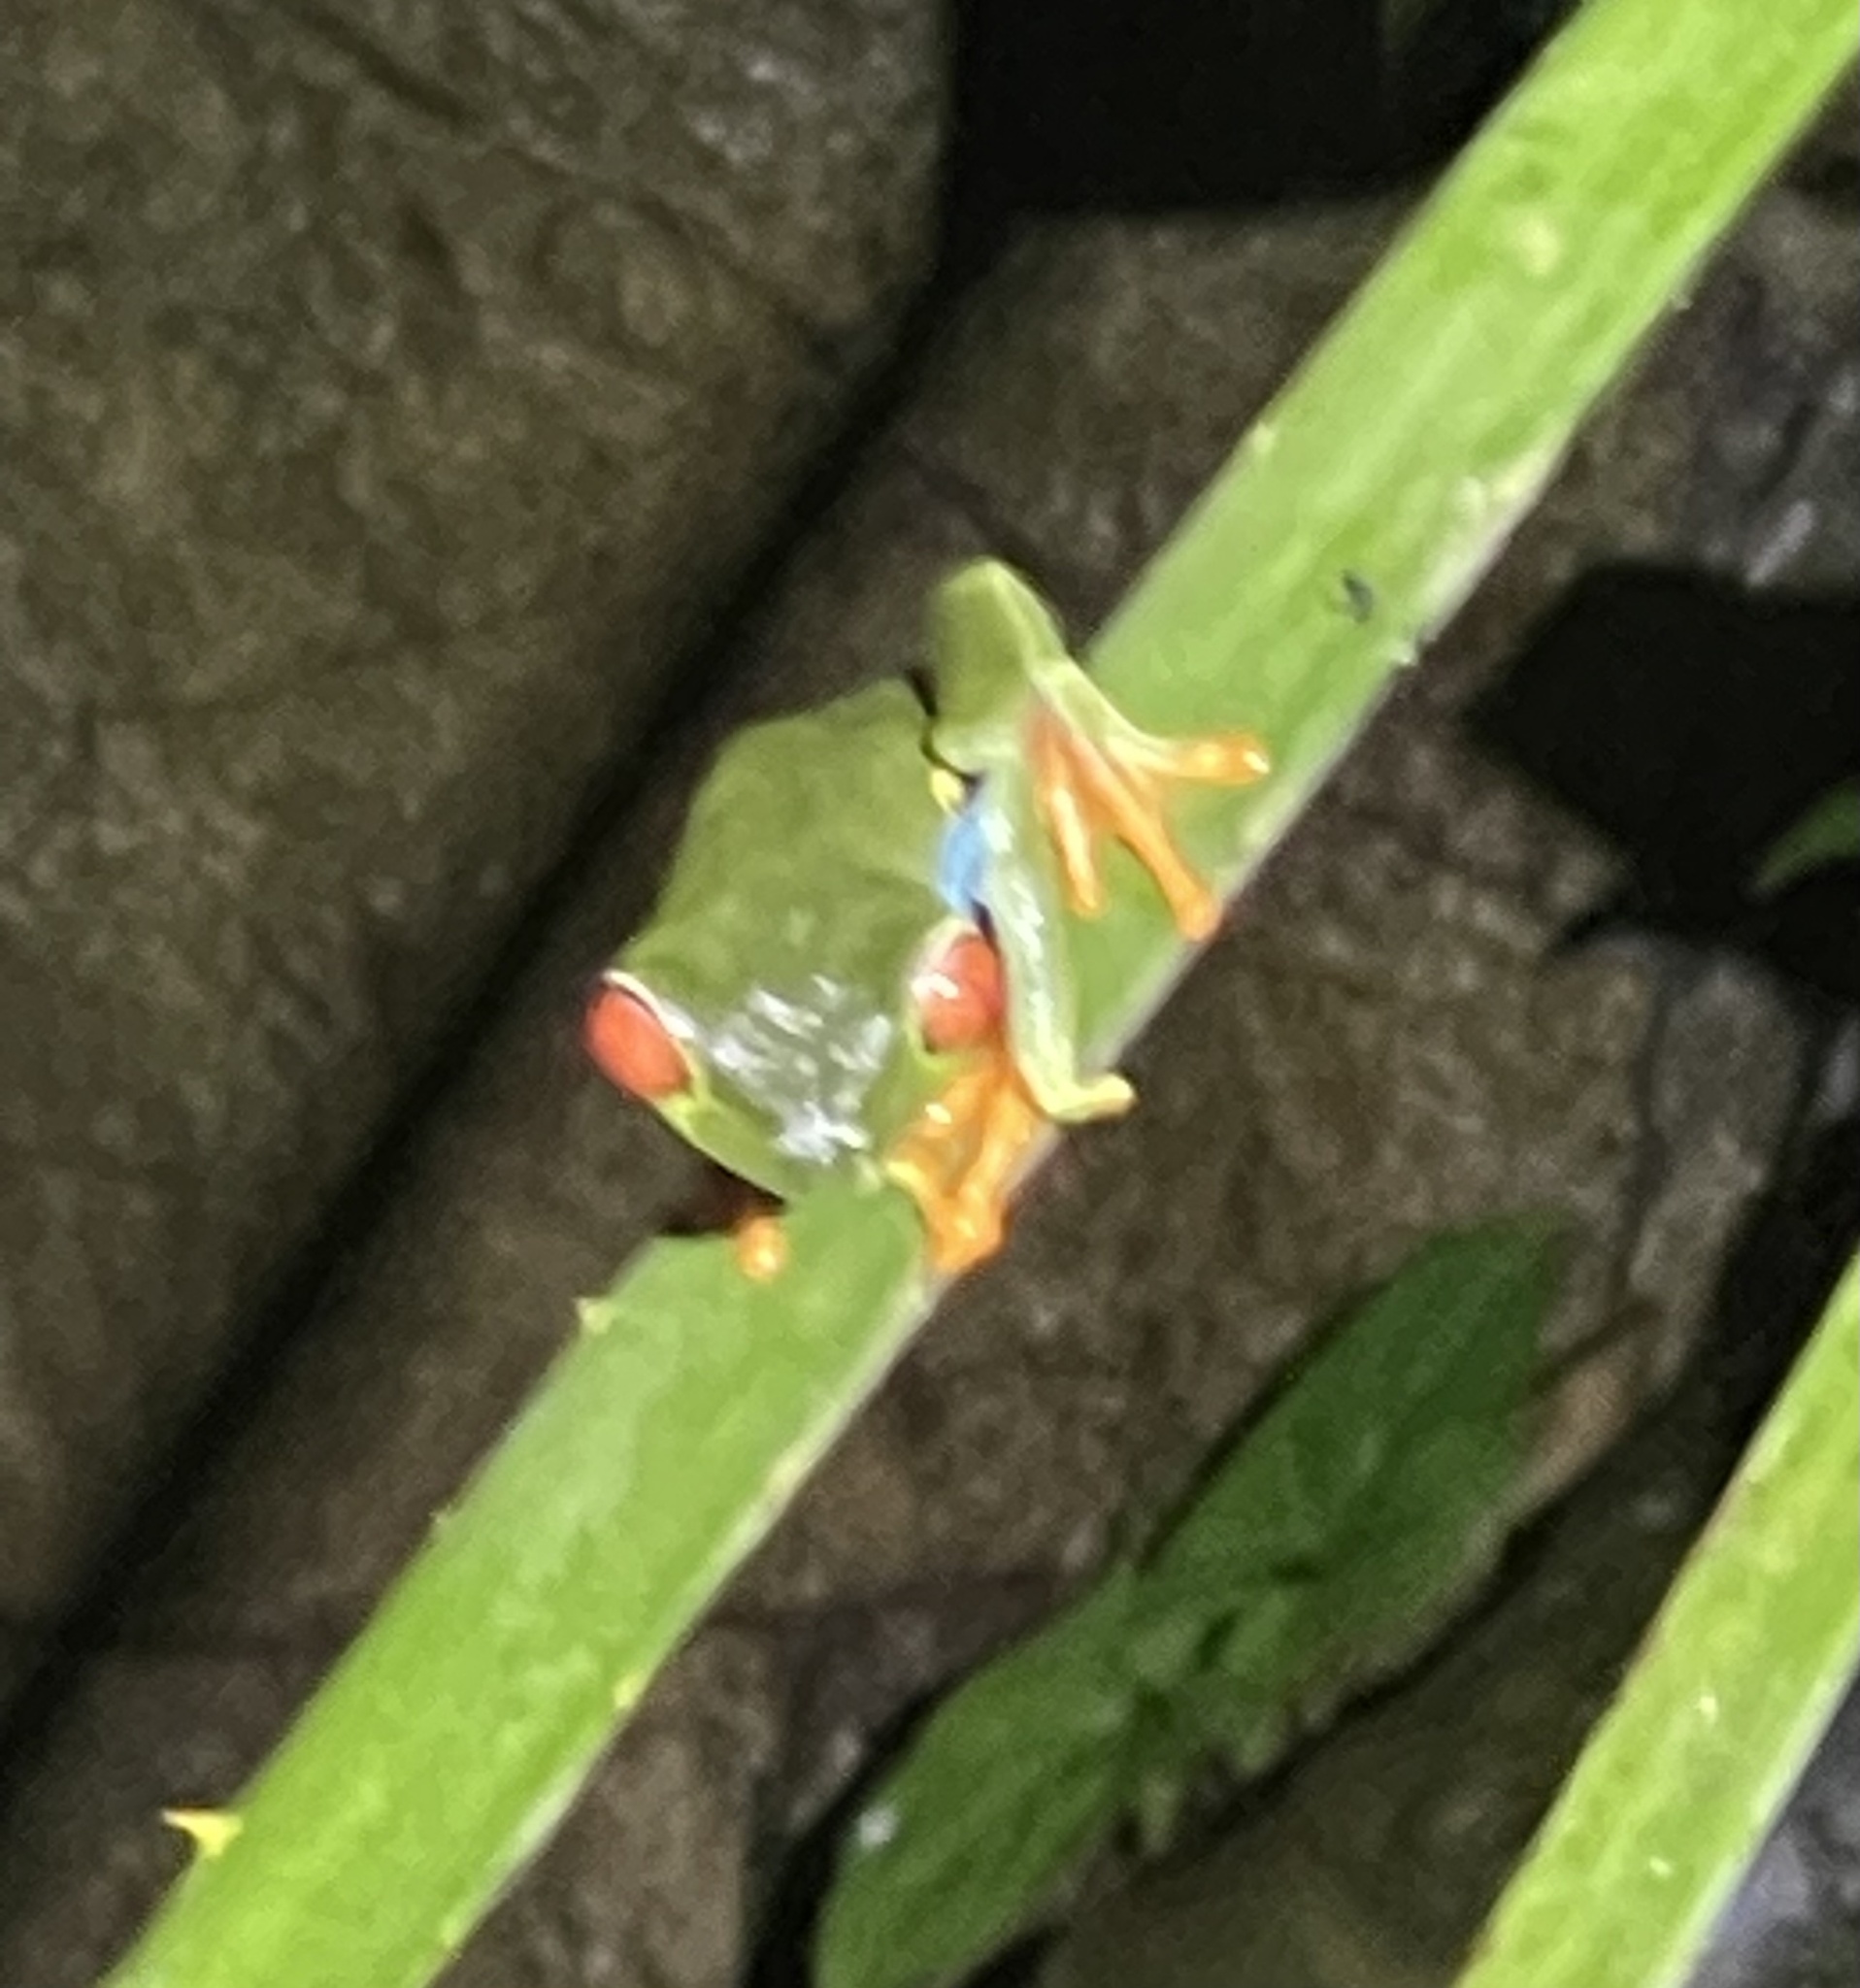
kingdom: Animalia
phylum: Chordata
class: Amphibia
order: Anura
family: Phyllomedusidae
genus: Agalychnis
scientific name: Agalychnis callidryas
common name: Red-eyed treefrog
